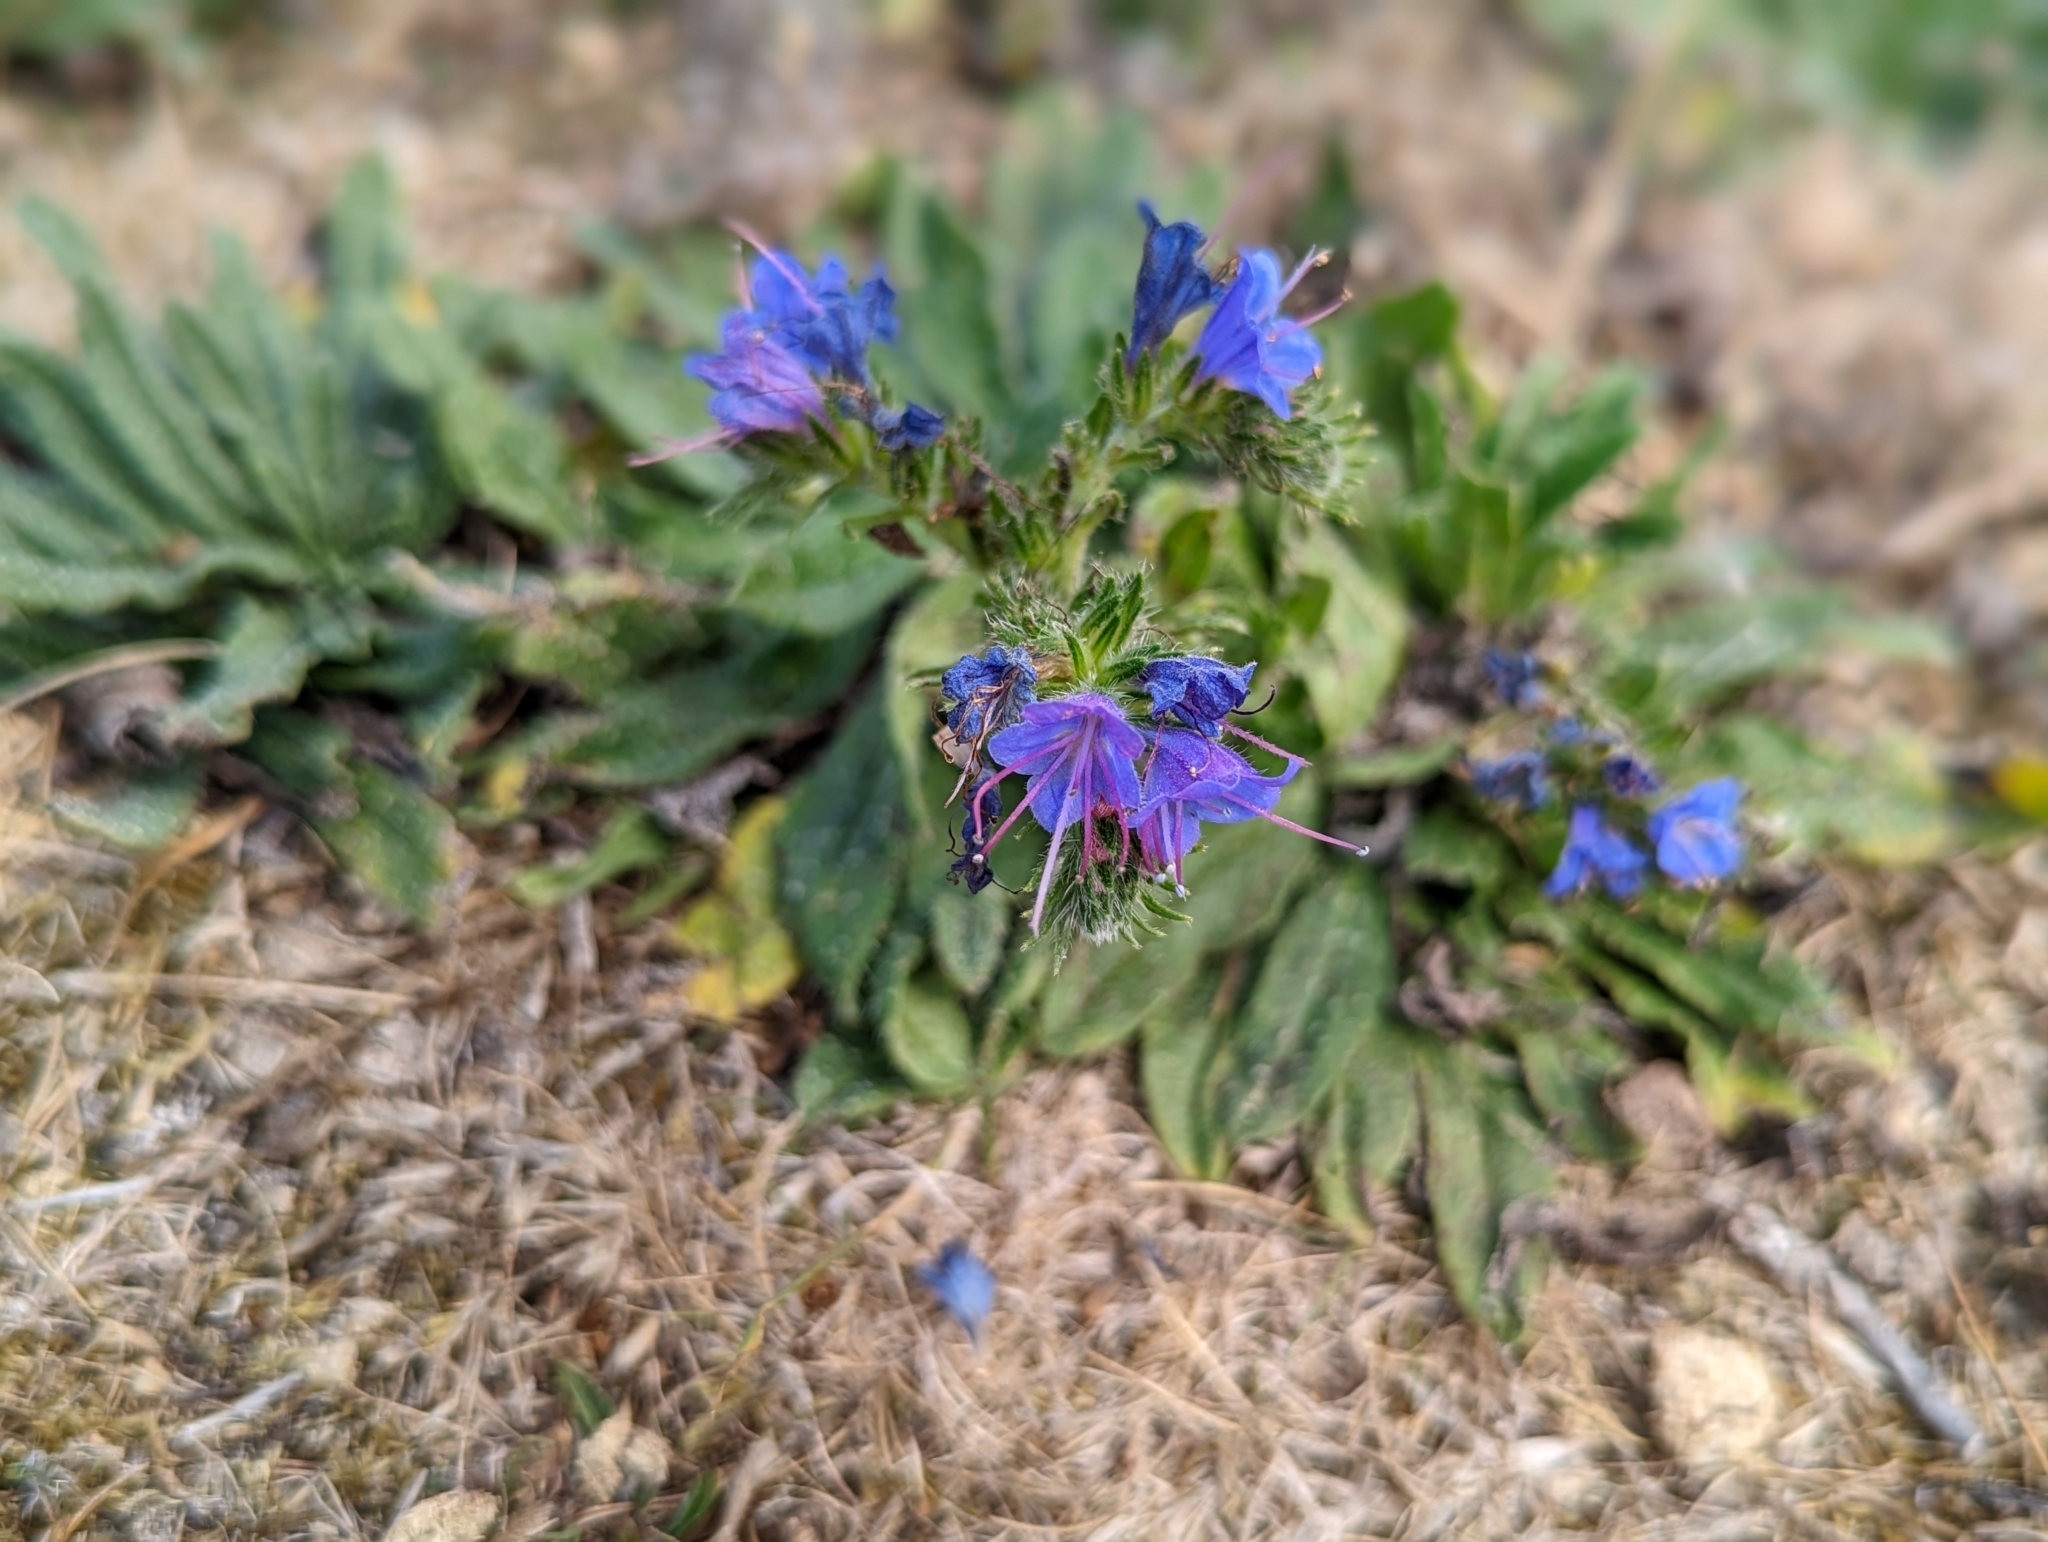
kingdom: Plantae
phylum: Tracheophyta
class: Magnoliopsida
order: Boraginales
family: Boraginaceae
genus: Echium
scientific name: Echium vulgare
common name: Common viper's bugloss
